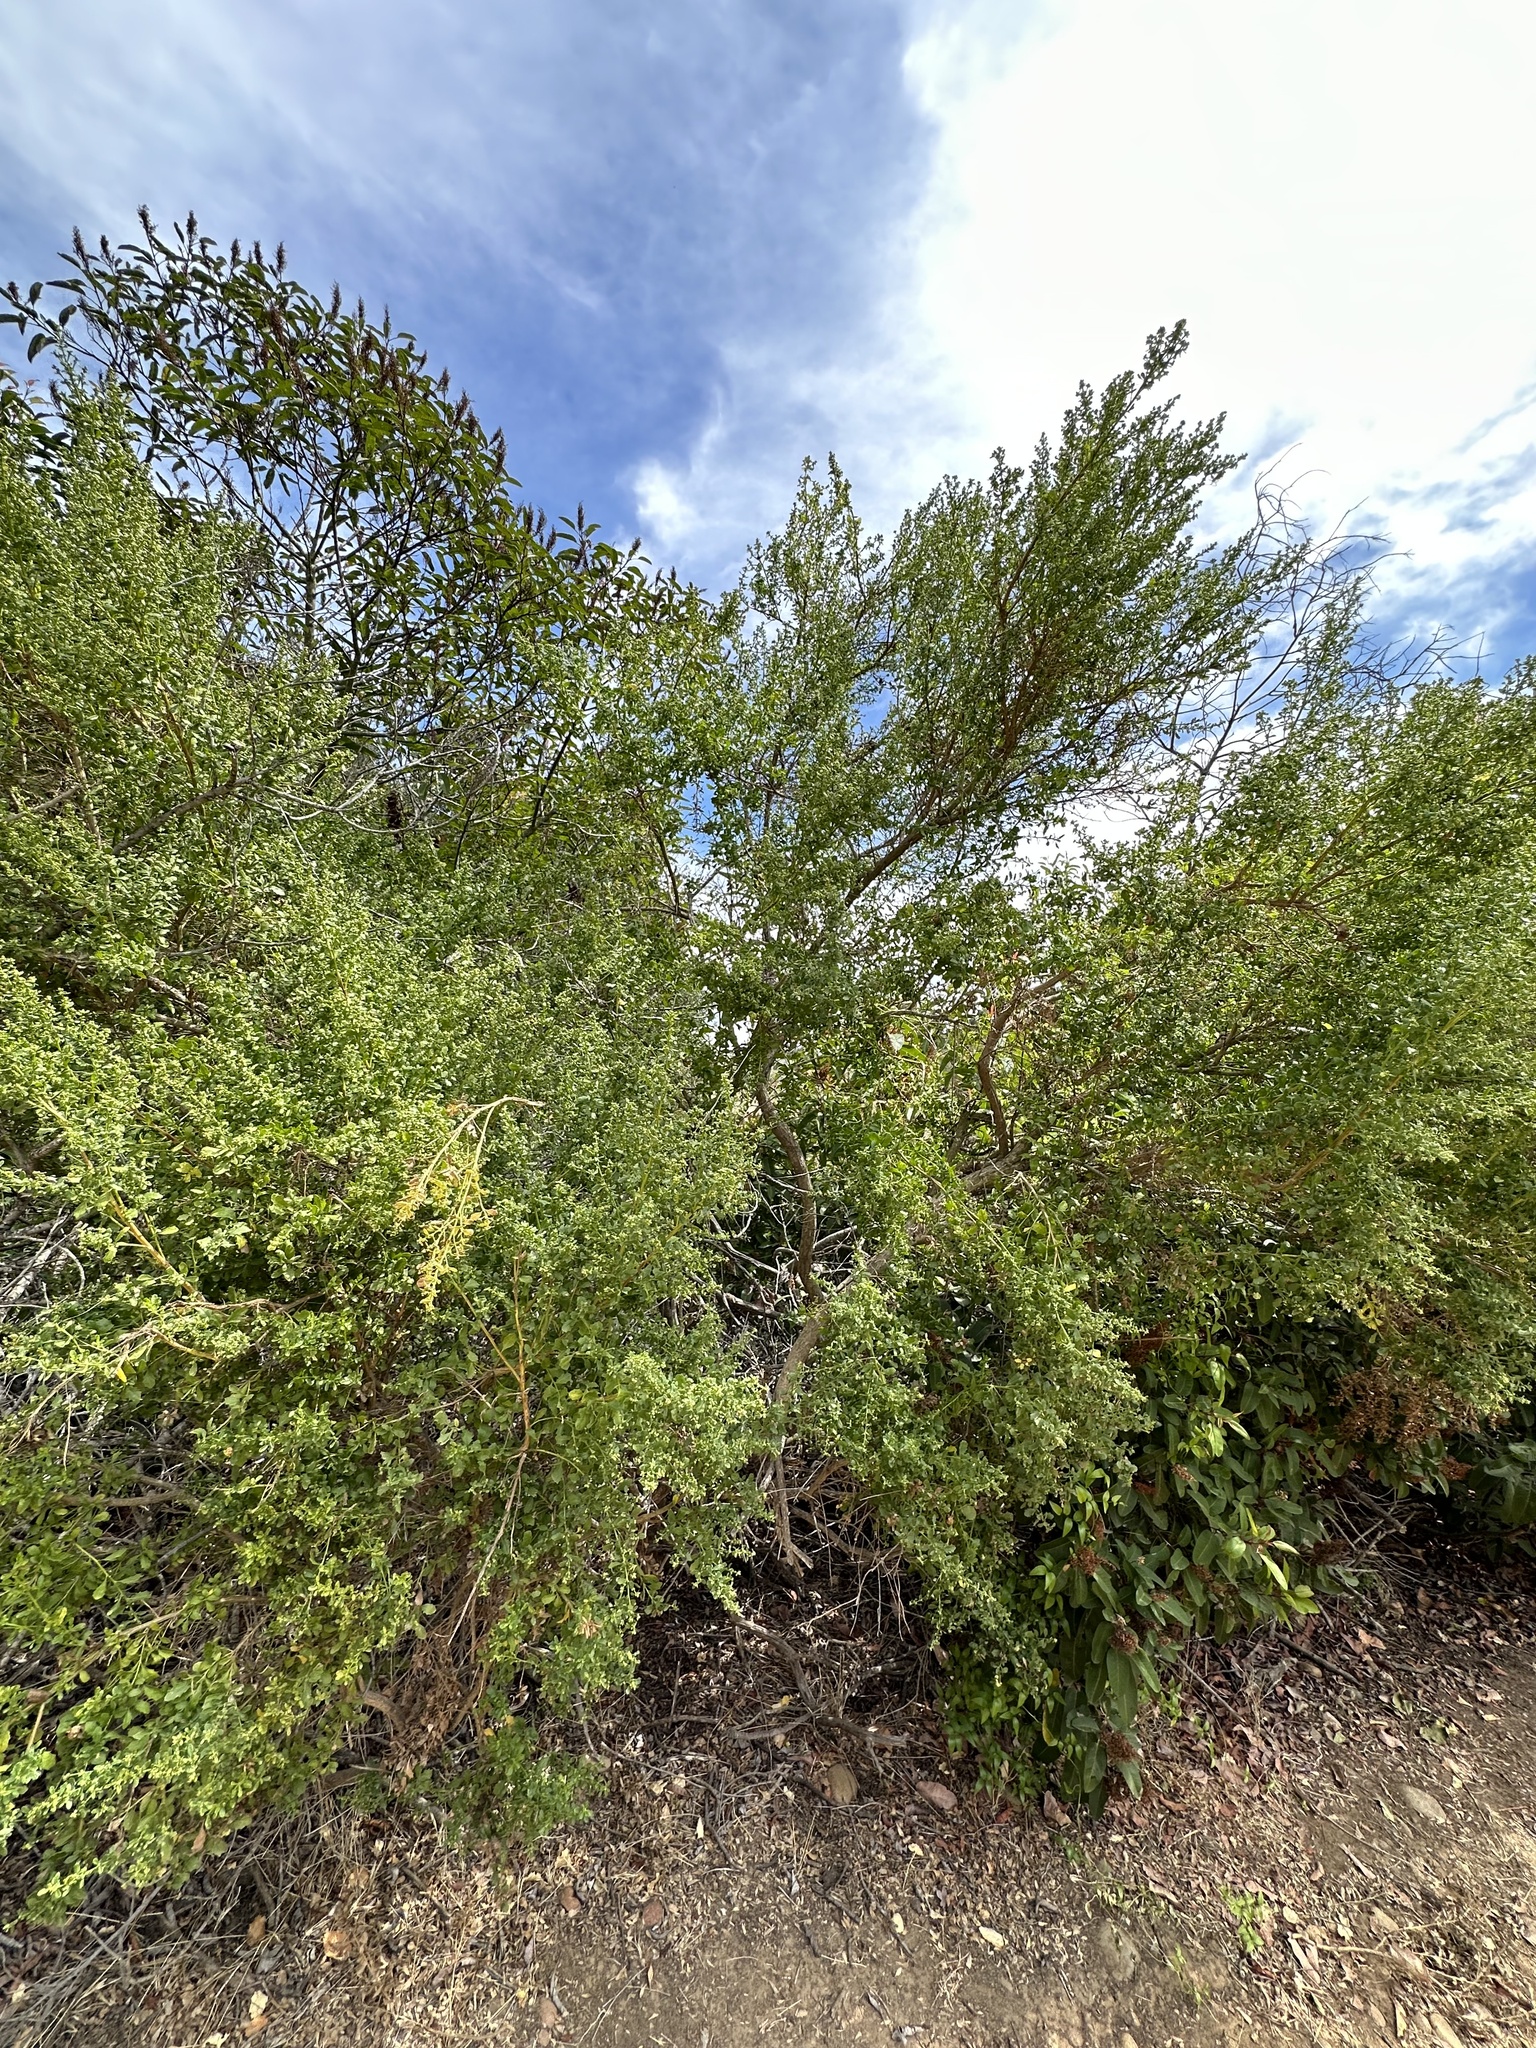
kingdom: Plantae
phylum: Tracheophyta
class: Magnoliopsida
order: Asterales
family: Asteraceae
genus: Baccharis
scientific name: Baccharis pilularis
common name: Coyotebrush
